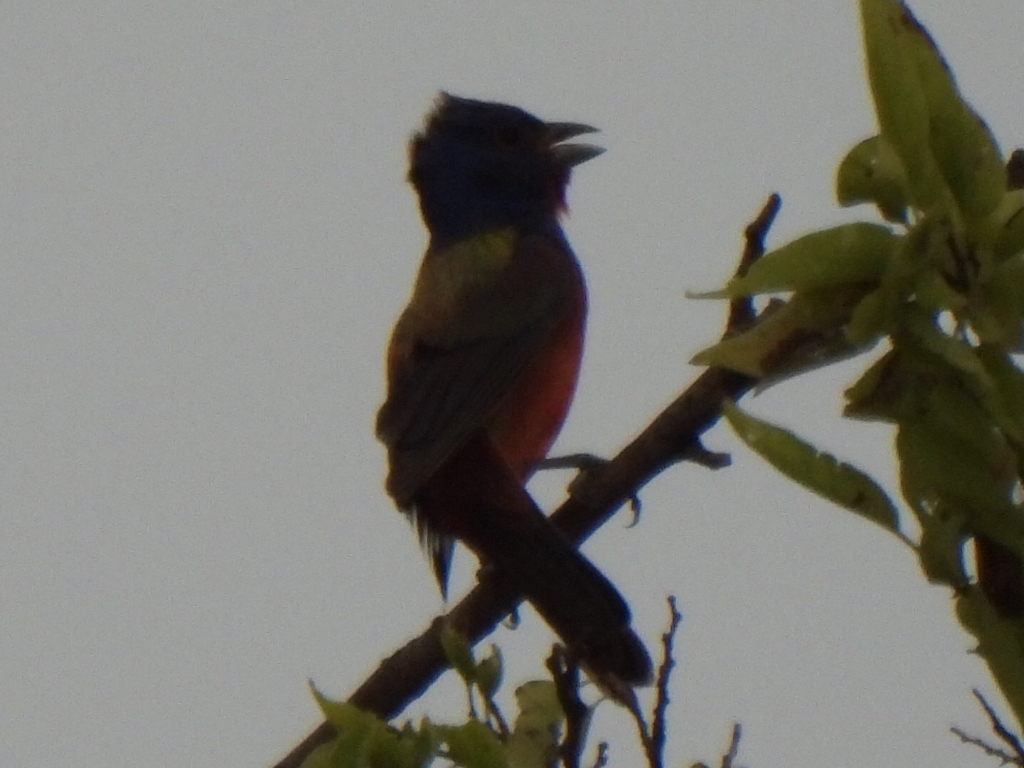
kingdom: Animalia
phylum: Chordata
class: Aves
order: Passeriformes
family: Cardinalidae
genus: Passerina
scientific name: Passerina ciris
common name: Painted bunting
